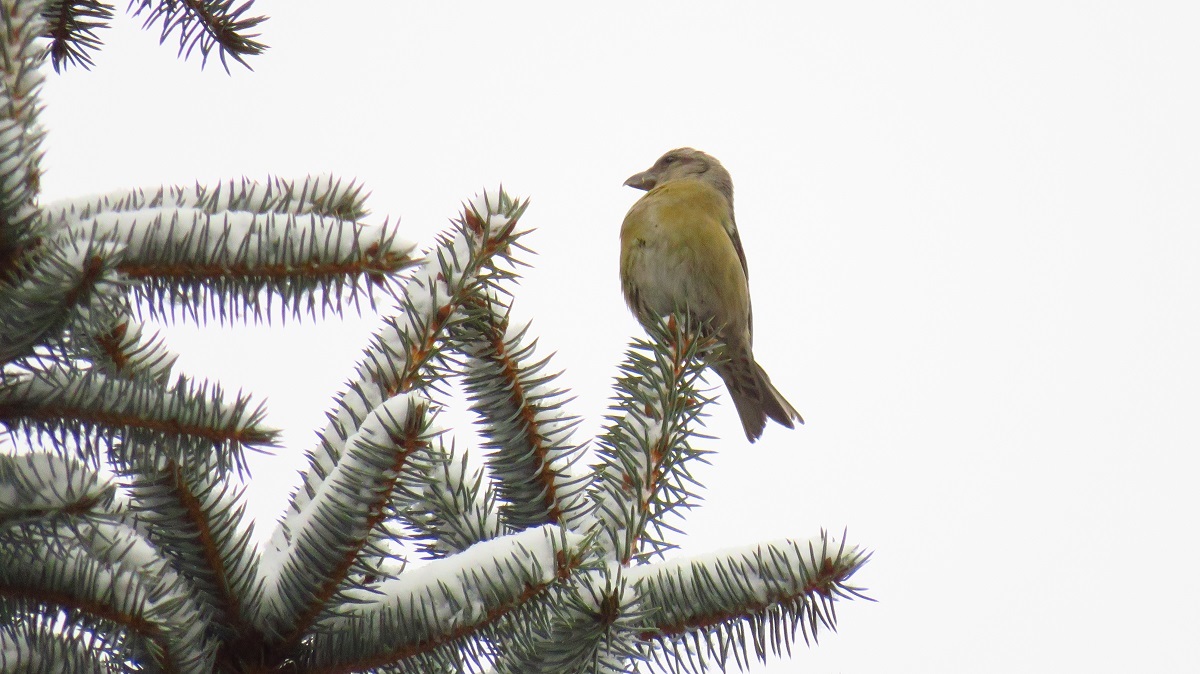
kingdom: Animalia
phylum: Chordata
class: Aves
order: Passeriformes
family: Fringillidae
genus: Loxia
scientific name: Loxia curvirostra
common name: Red crossbill
